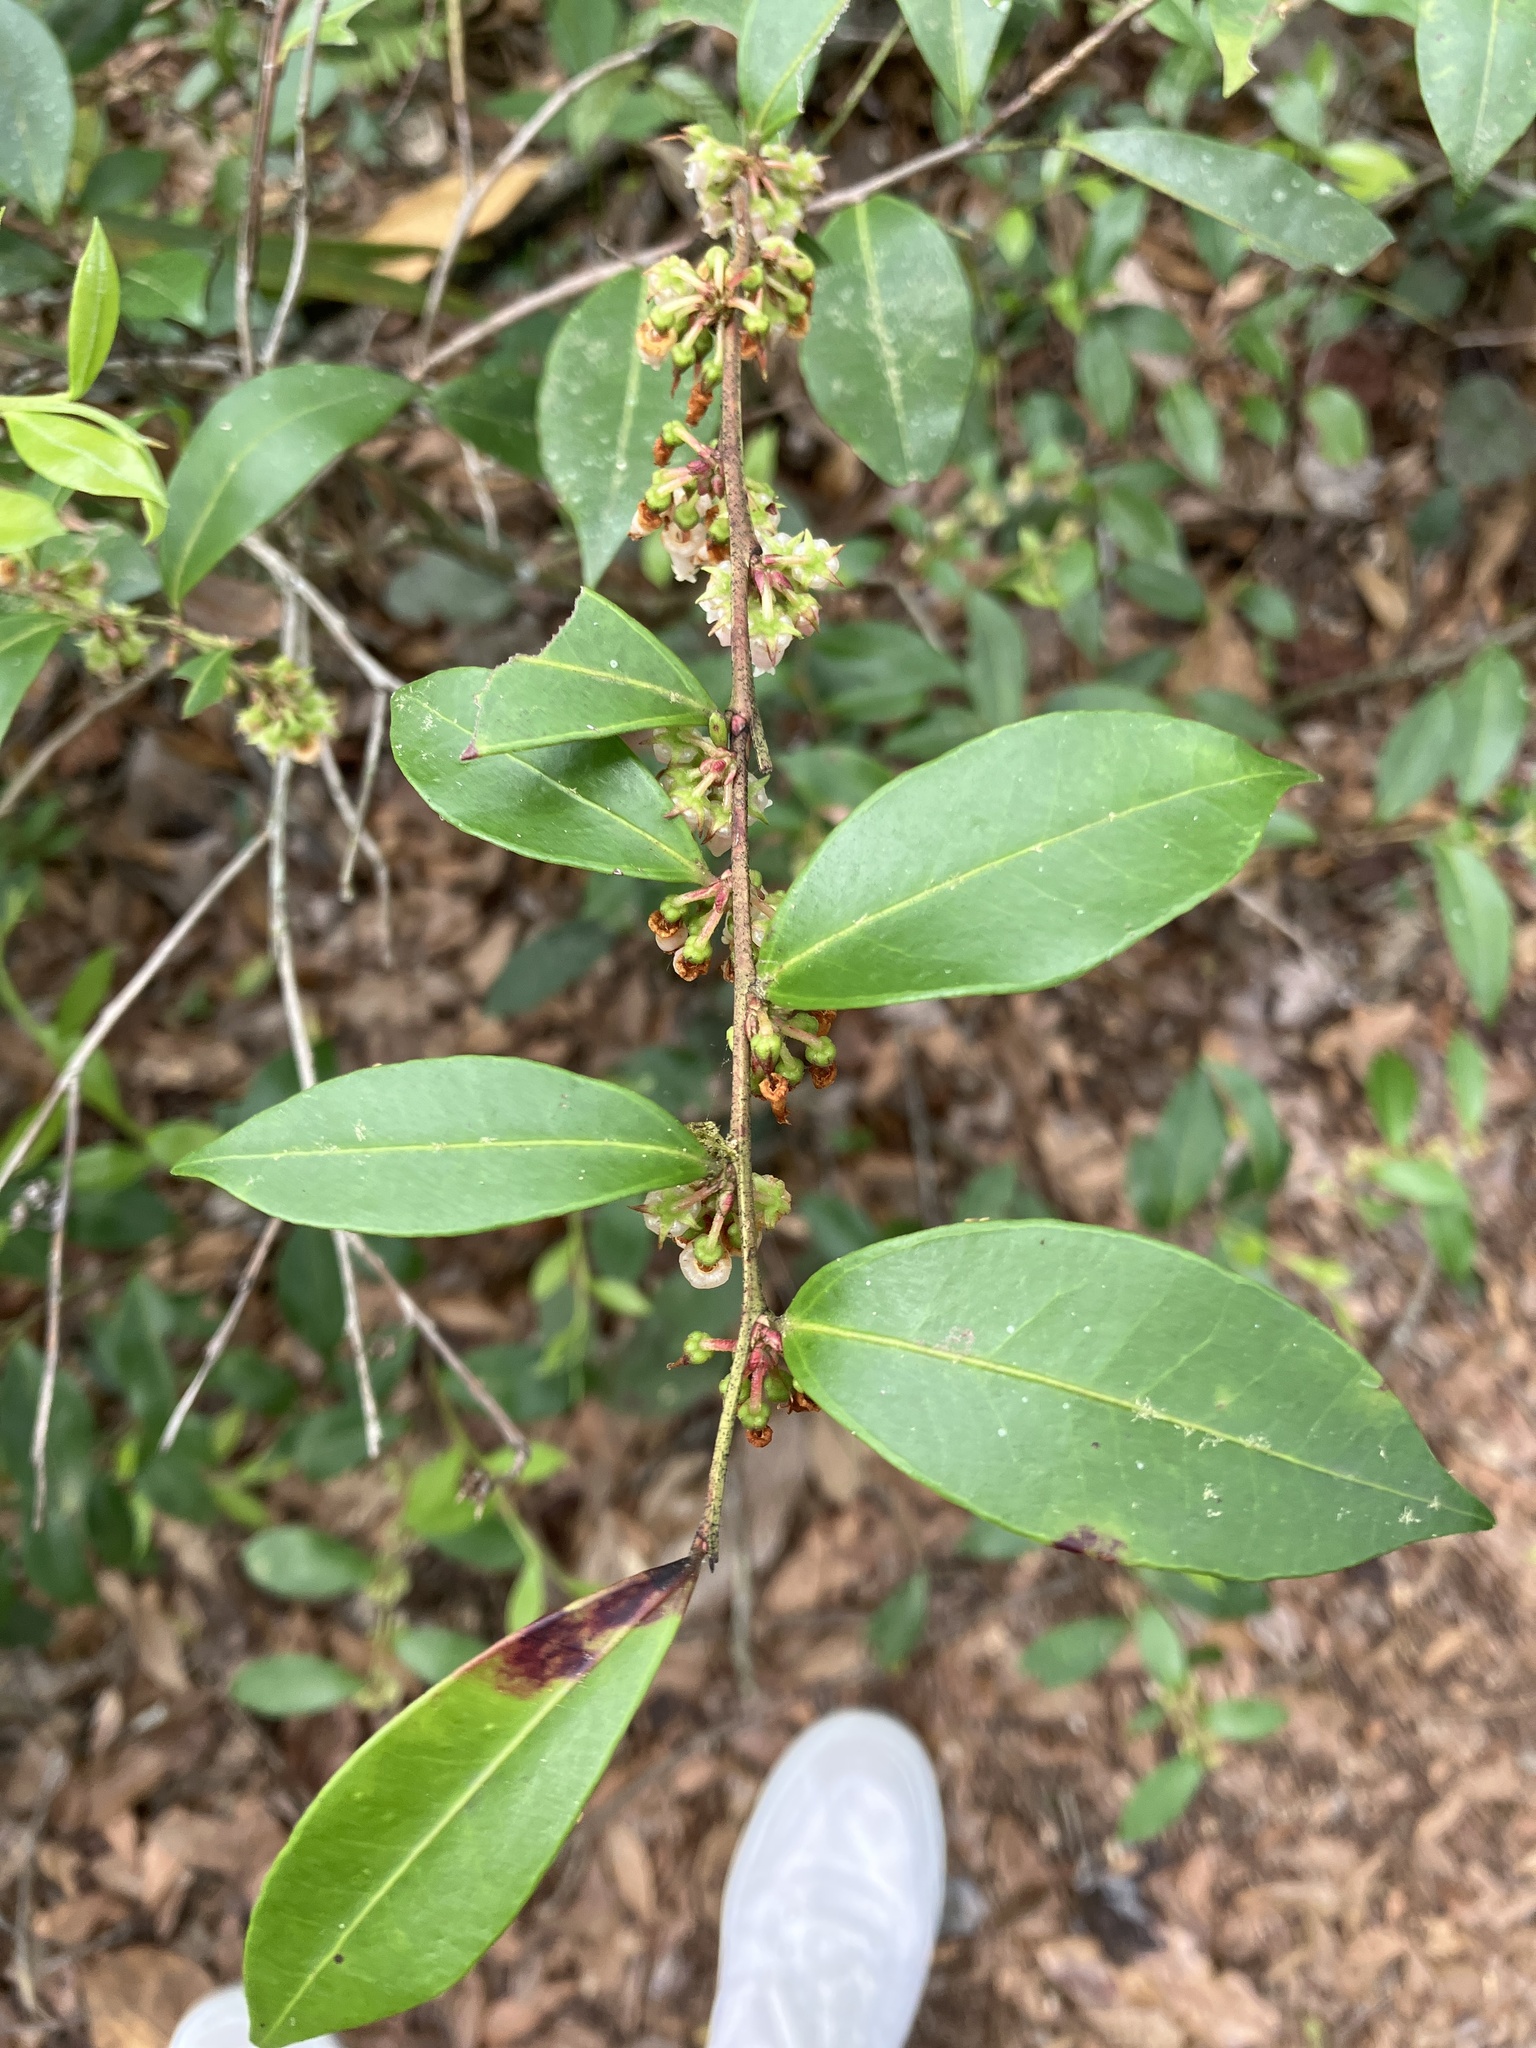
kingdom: Plantae
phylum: Tracheophyta
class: Magnoliopsida
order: Ericales
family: Ericaceae
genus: Lyonia
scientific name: Lyonia lucida
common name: Fetterbush
